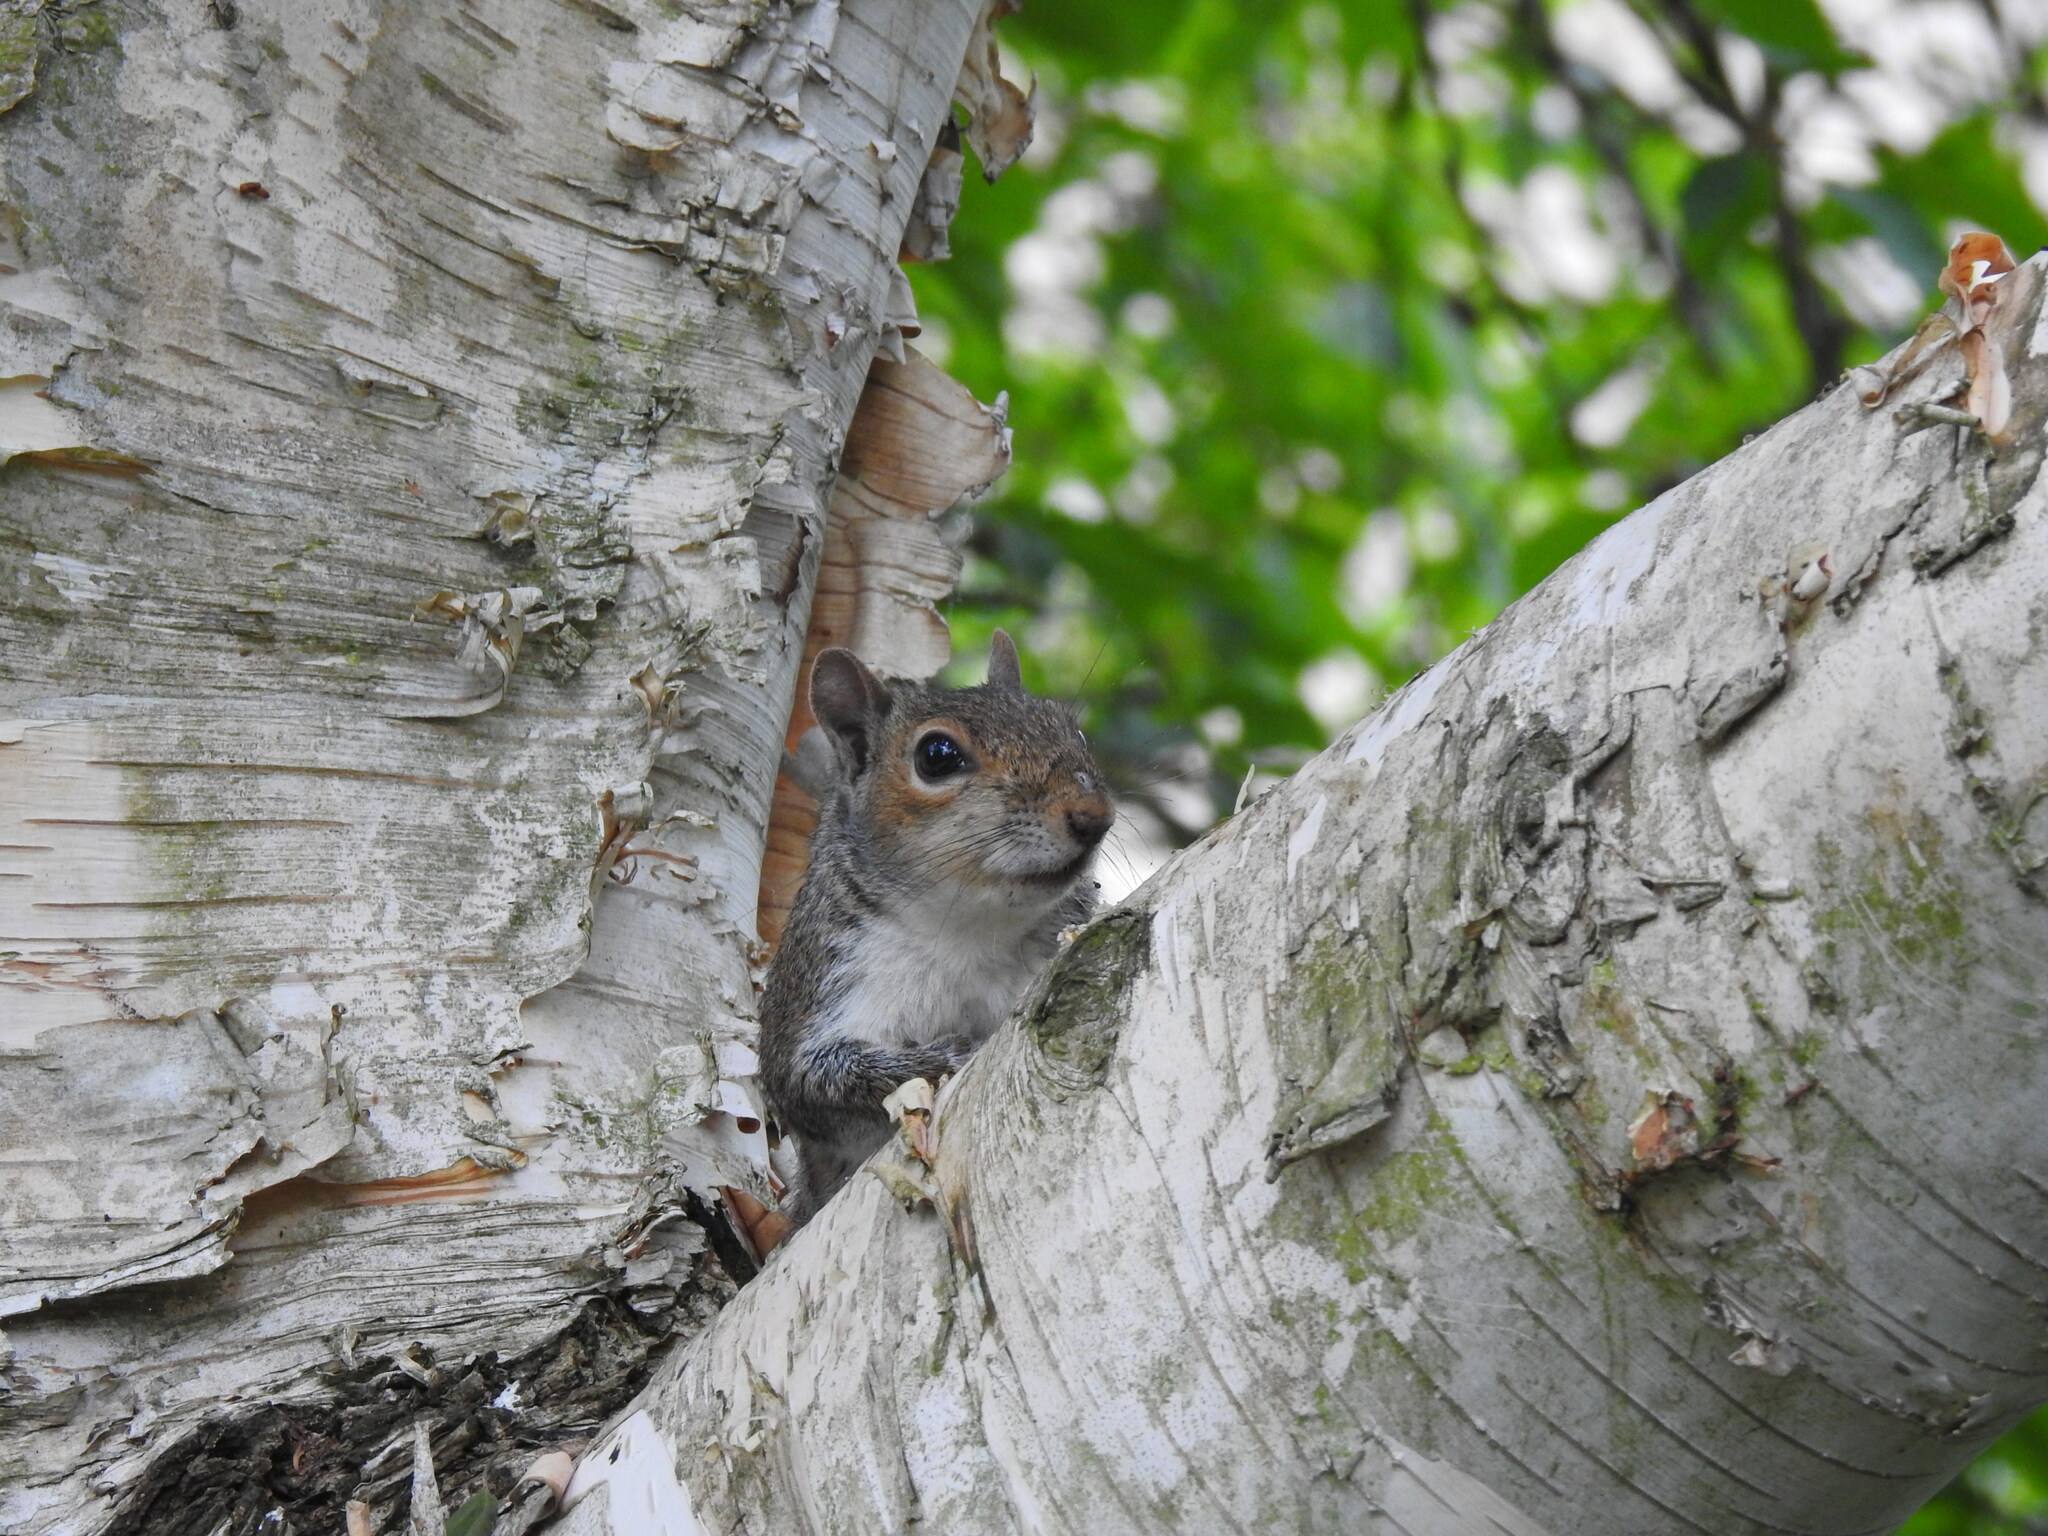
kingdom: Animalia
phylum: Chordata
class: Mammalia
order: Rodentia
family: Sciuridae
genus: Sciurus
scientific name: Sciurus carolinensis
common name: Eastern gray squirrel
